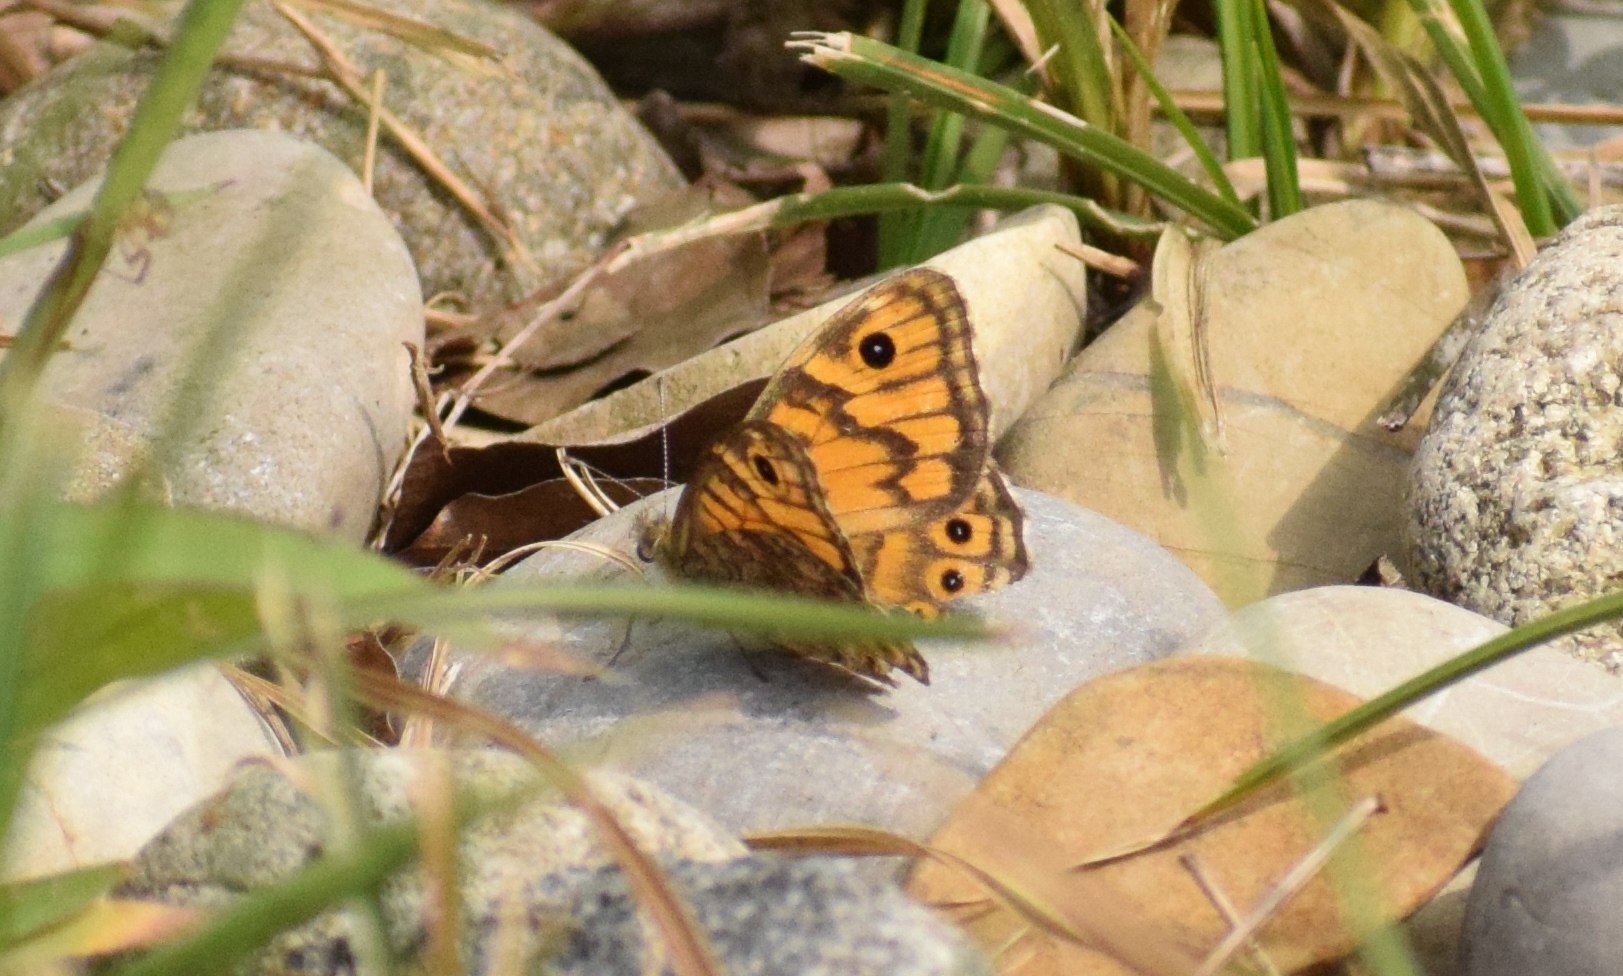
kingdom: Animalia
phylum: Arthropoda
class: Insecta
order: Lepidoptera
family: Nymphalidae
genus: Pararge
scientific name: Pararge Lasiommata megera
